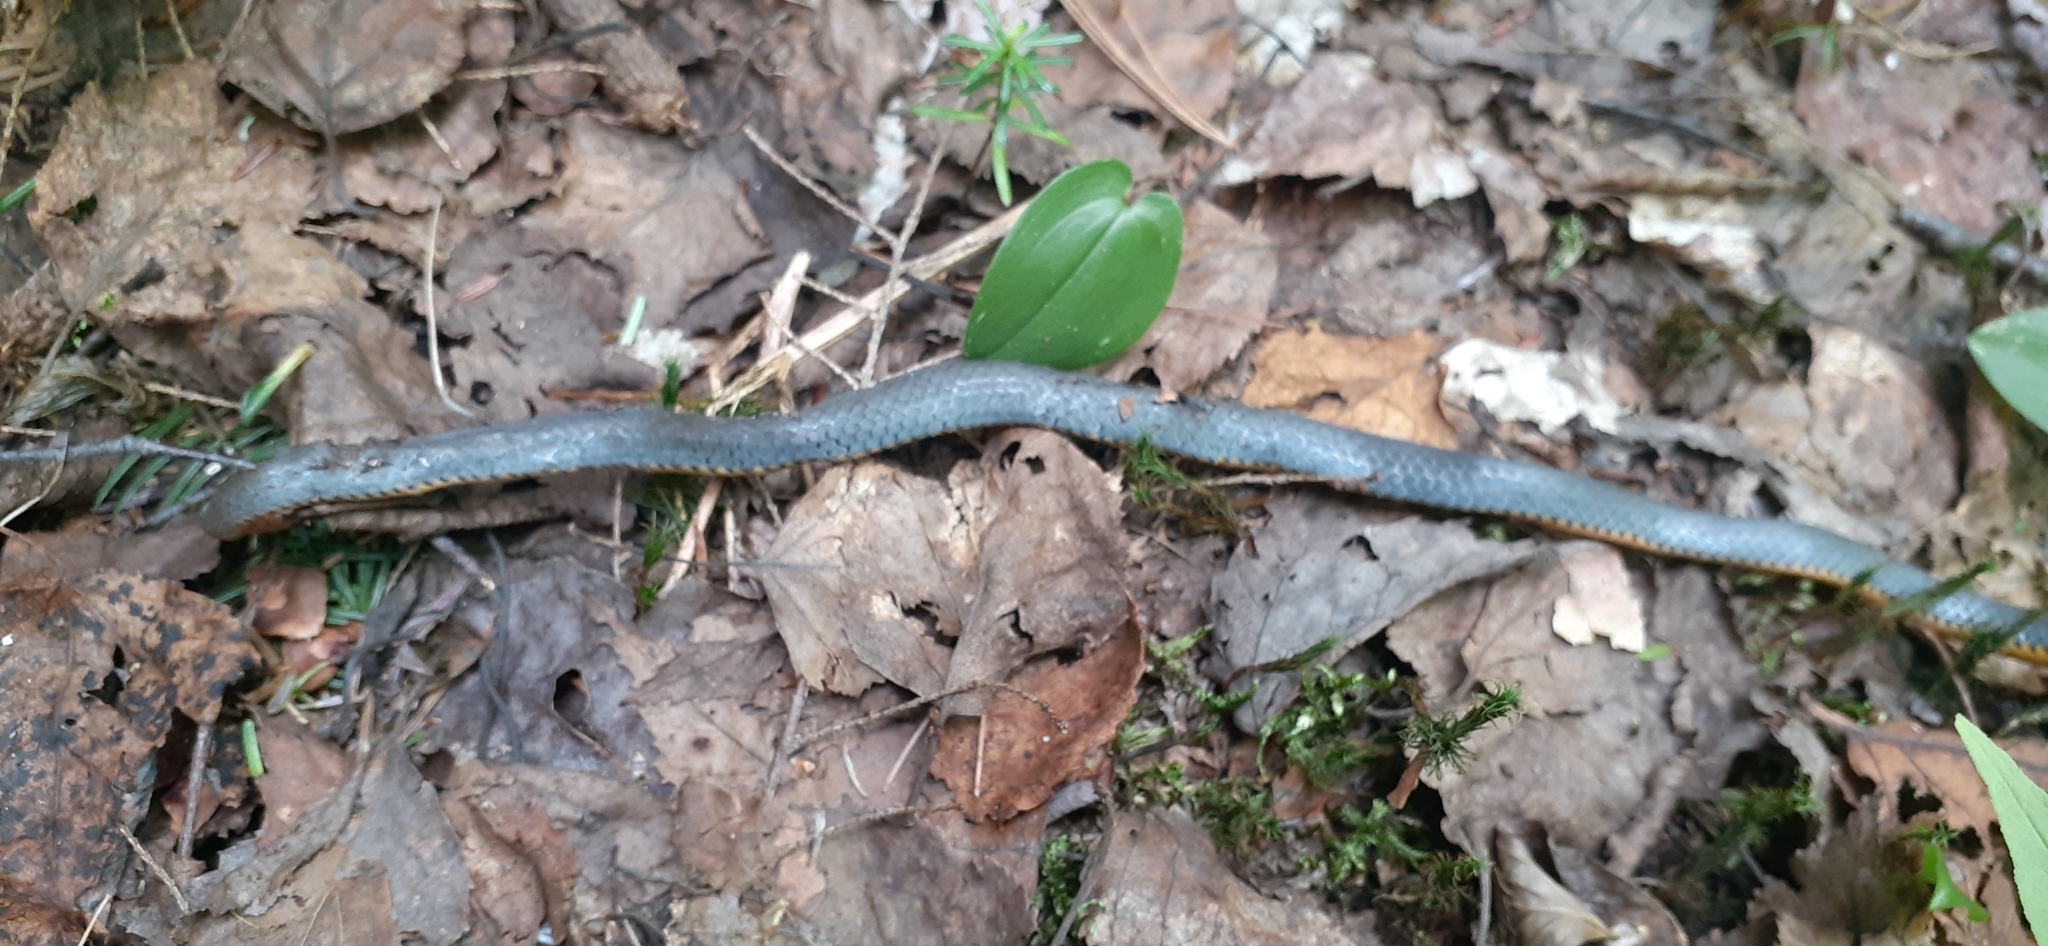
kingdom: Animalia
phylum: Chordata
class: Squamata
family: Colubridae
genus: Diadophis
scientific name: Diadophis punctatus
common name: Ringneck snake
